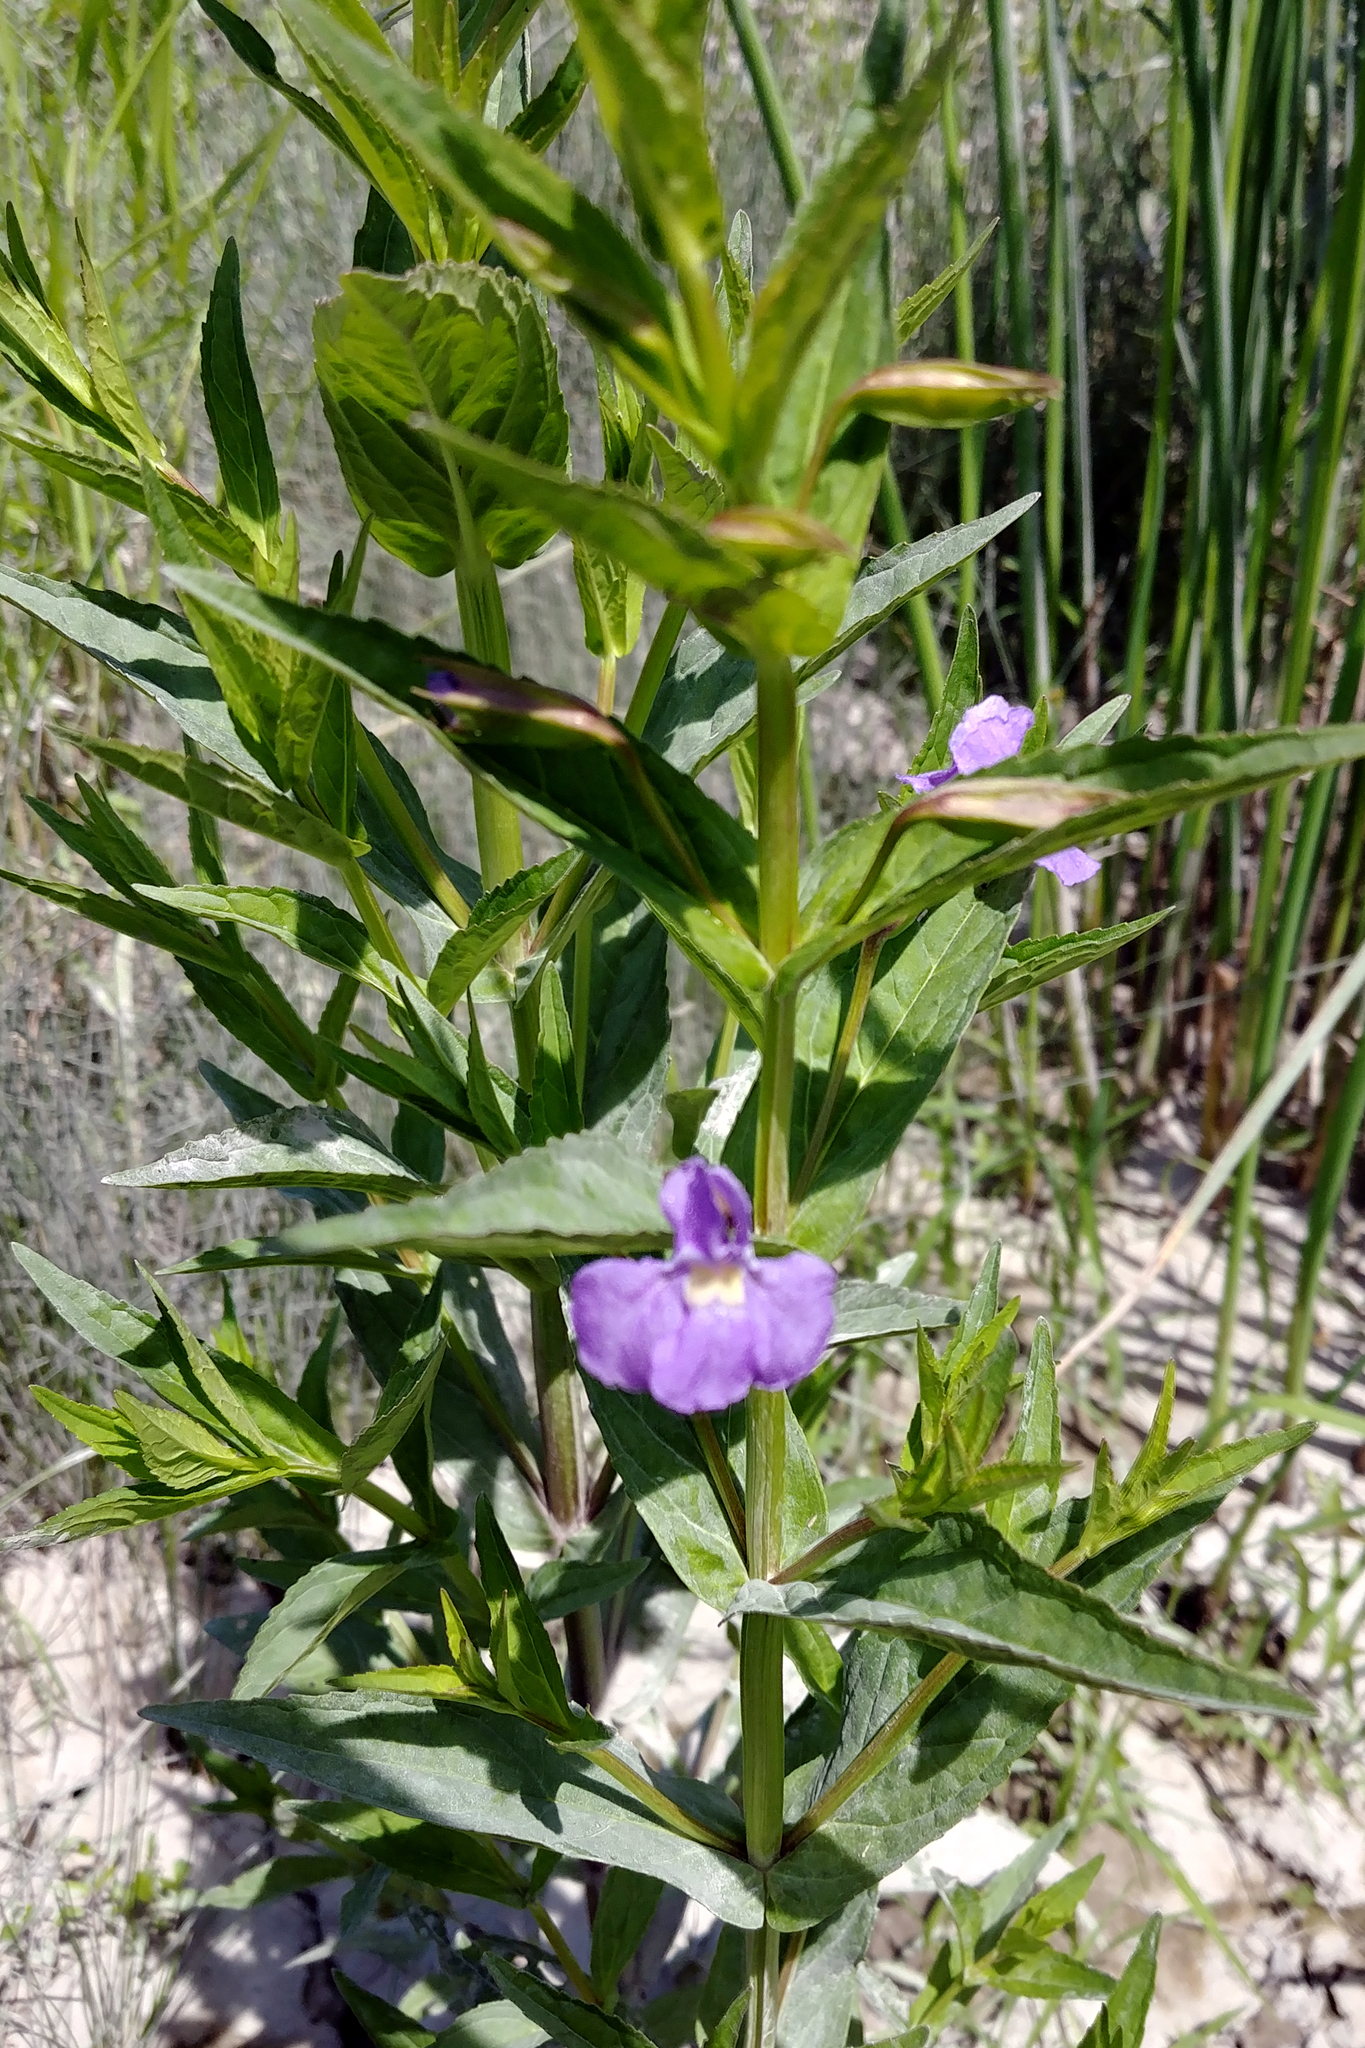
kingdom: Plantae
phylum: Tracheophyta
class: Magnoliopsida
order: Lamiales
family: Phrymaceae
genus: Mimulus
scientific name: Mimulus ringens
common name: Allegheny monkeyflower
